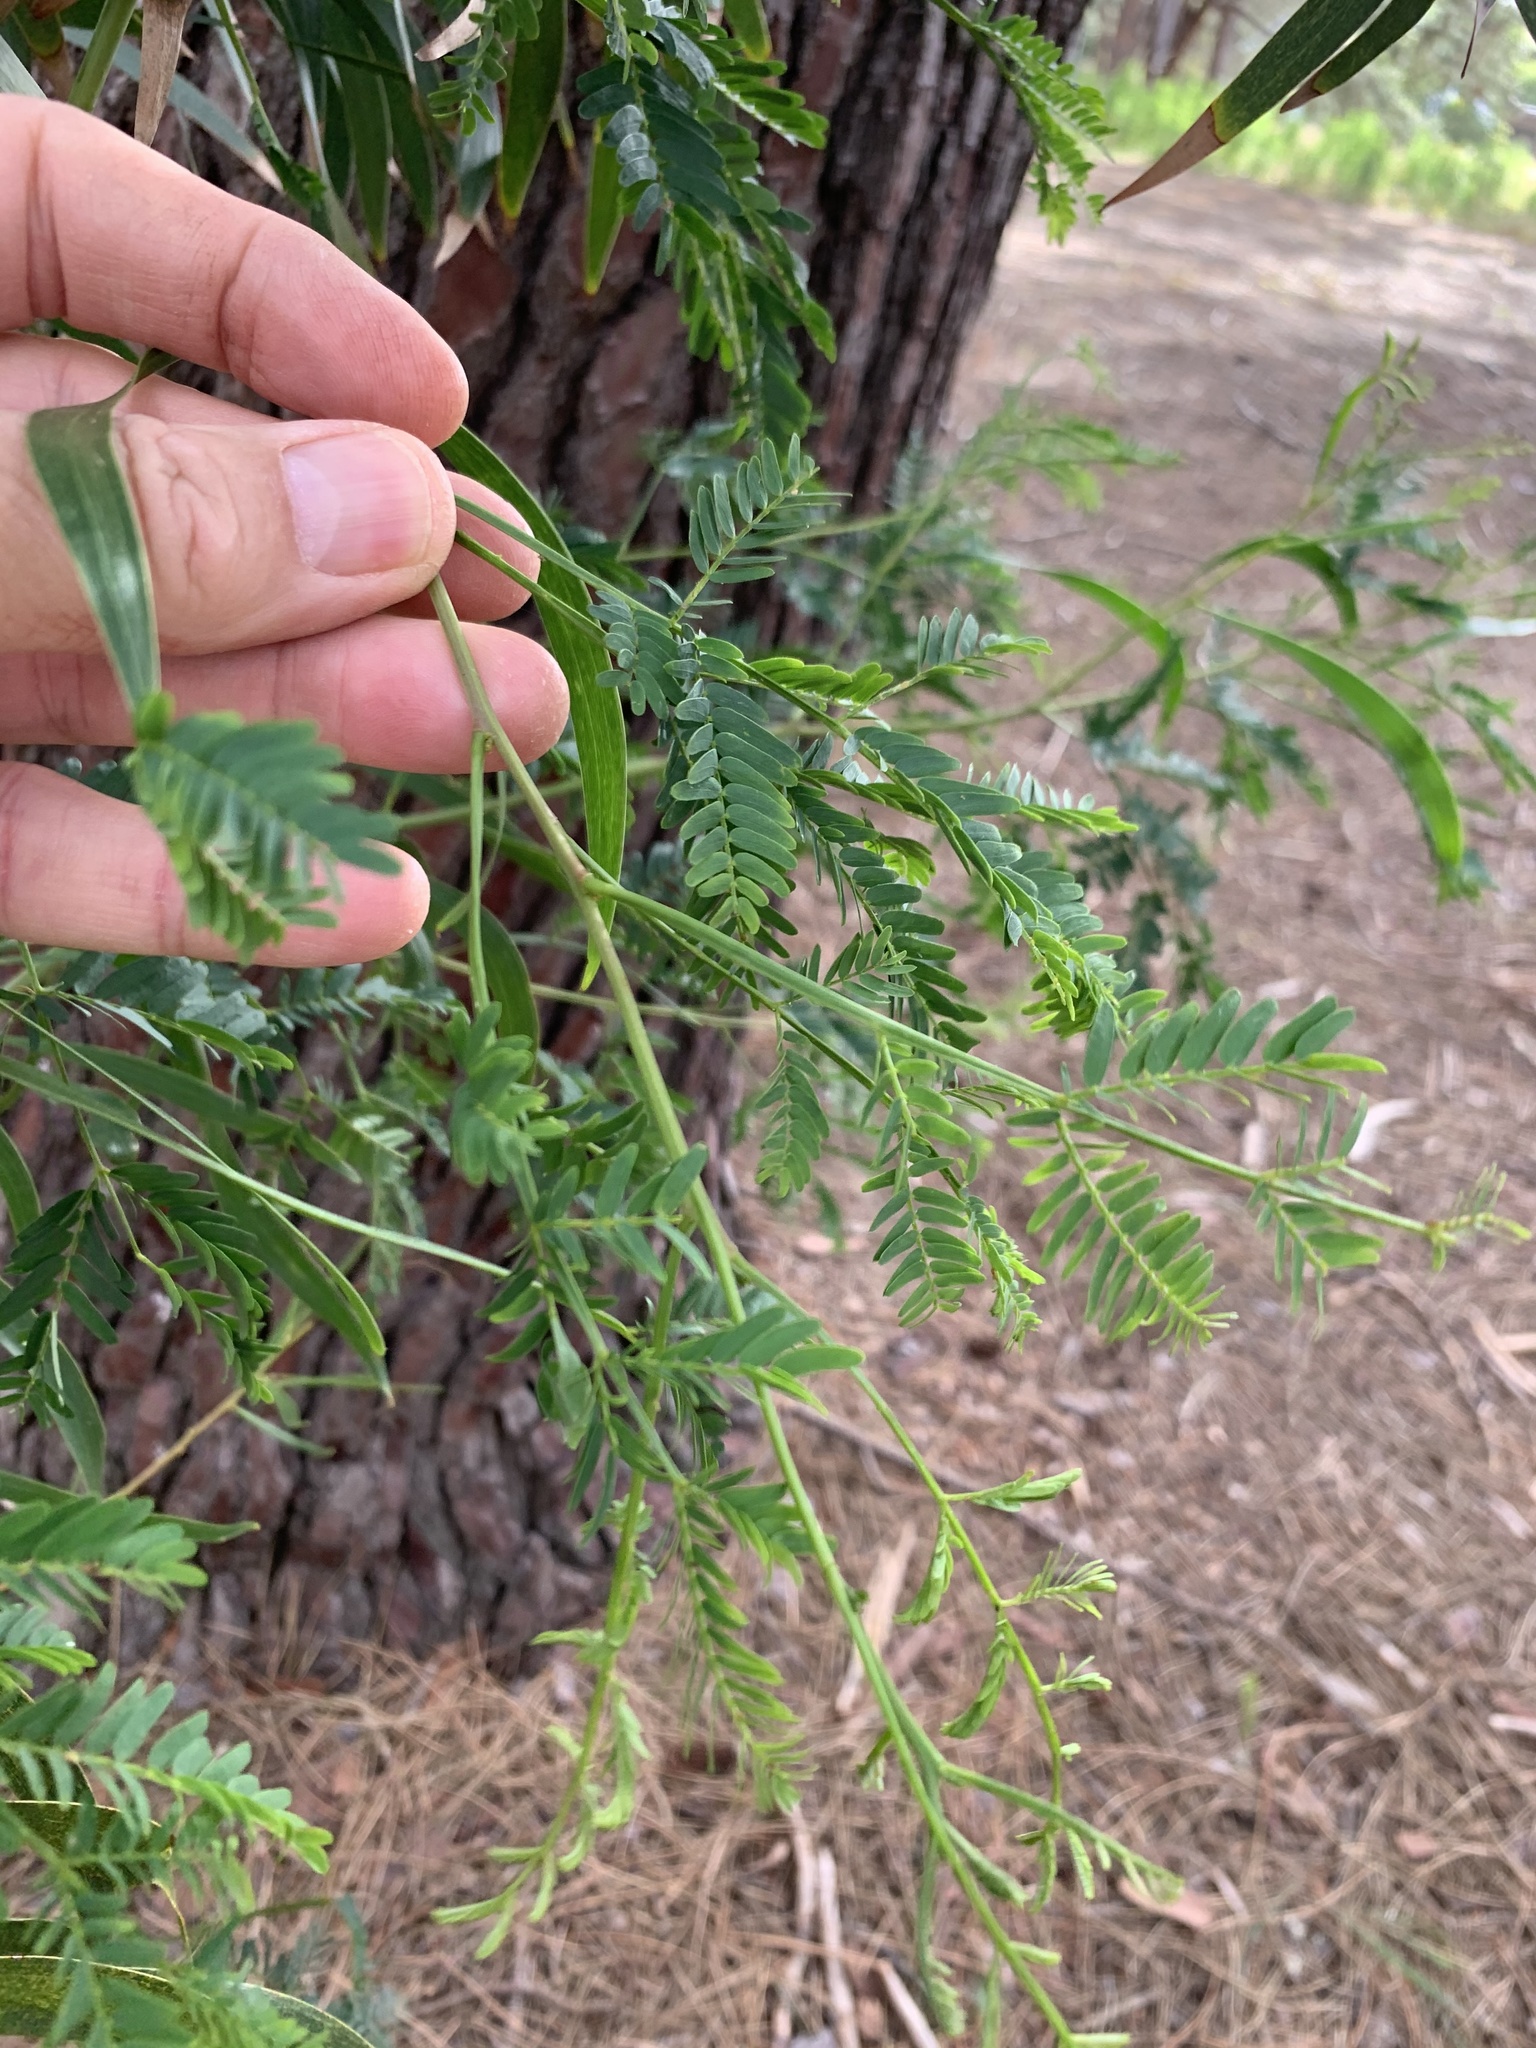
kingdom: Plantae
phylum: Tracheophyta
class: Magnoliopsida
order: Fabales
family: Fabaceae
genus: Acacia
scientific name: Acacia implexa
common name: Black wattle
